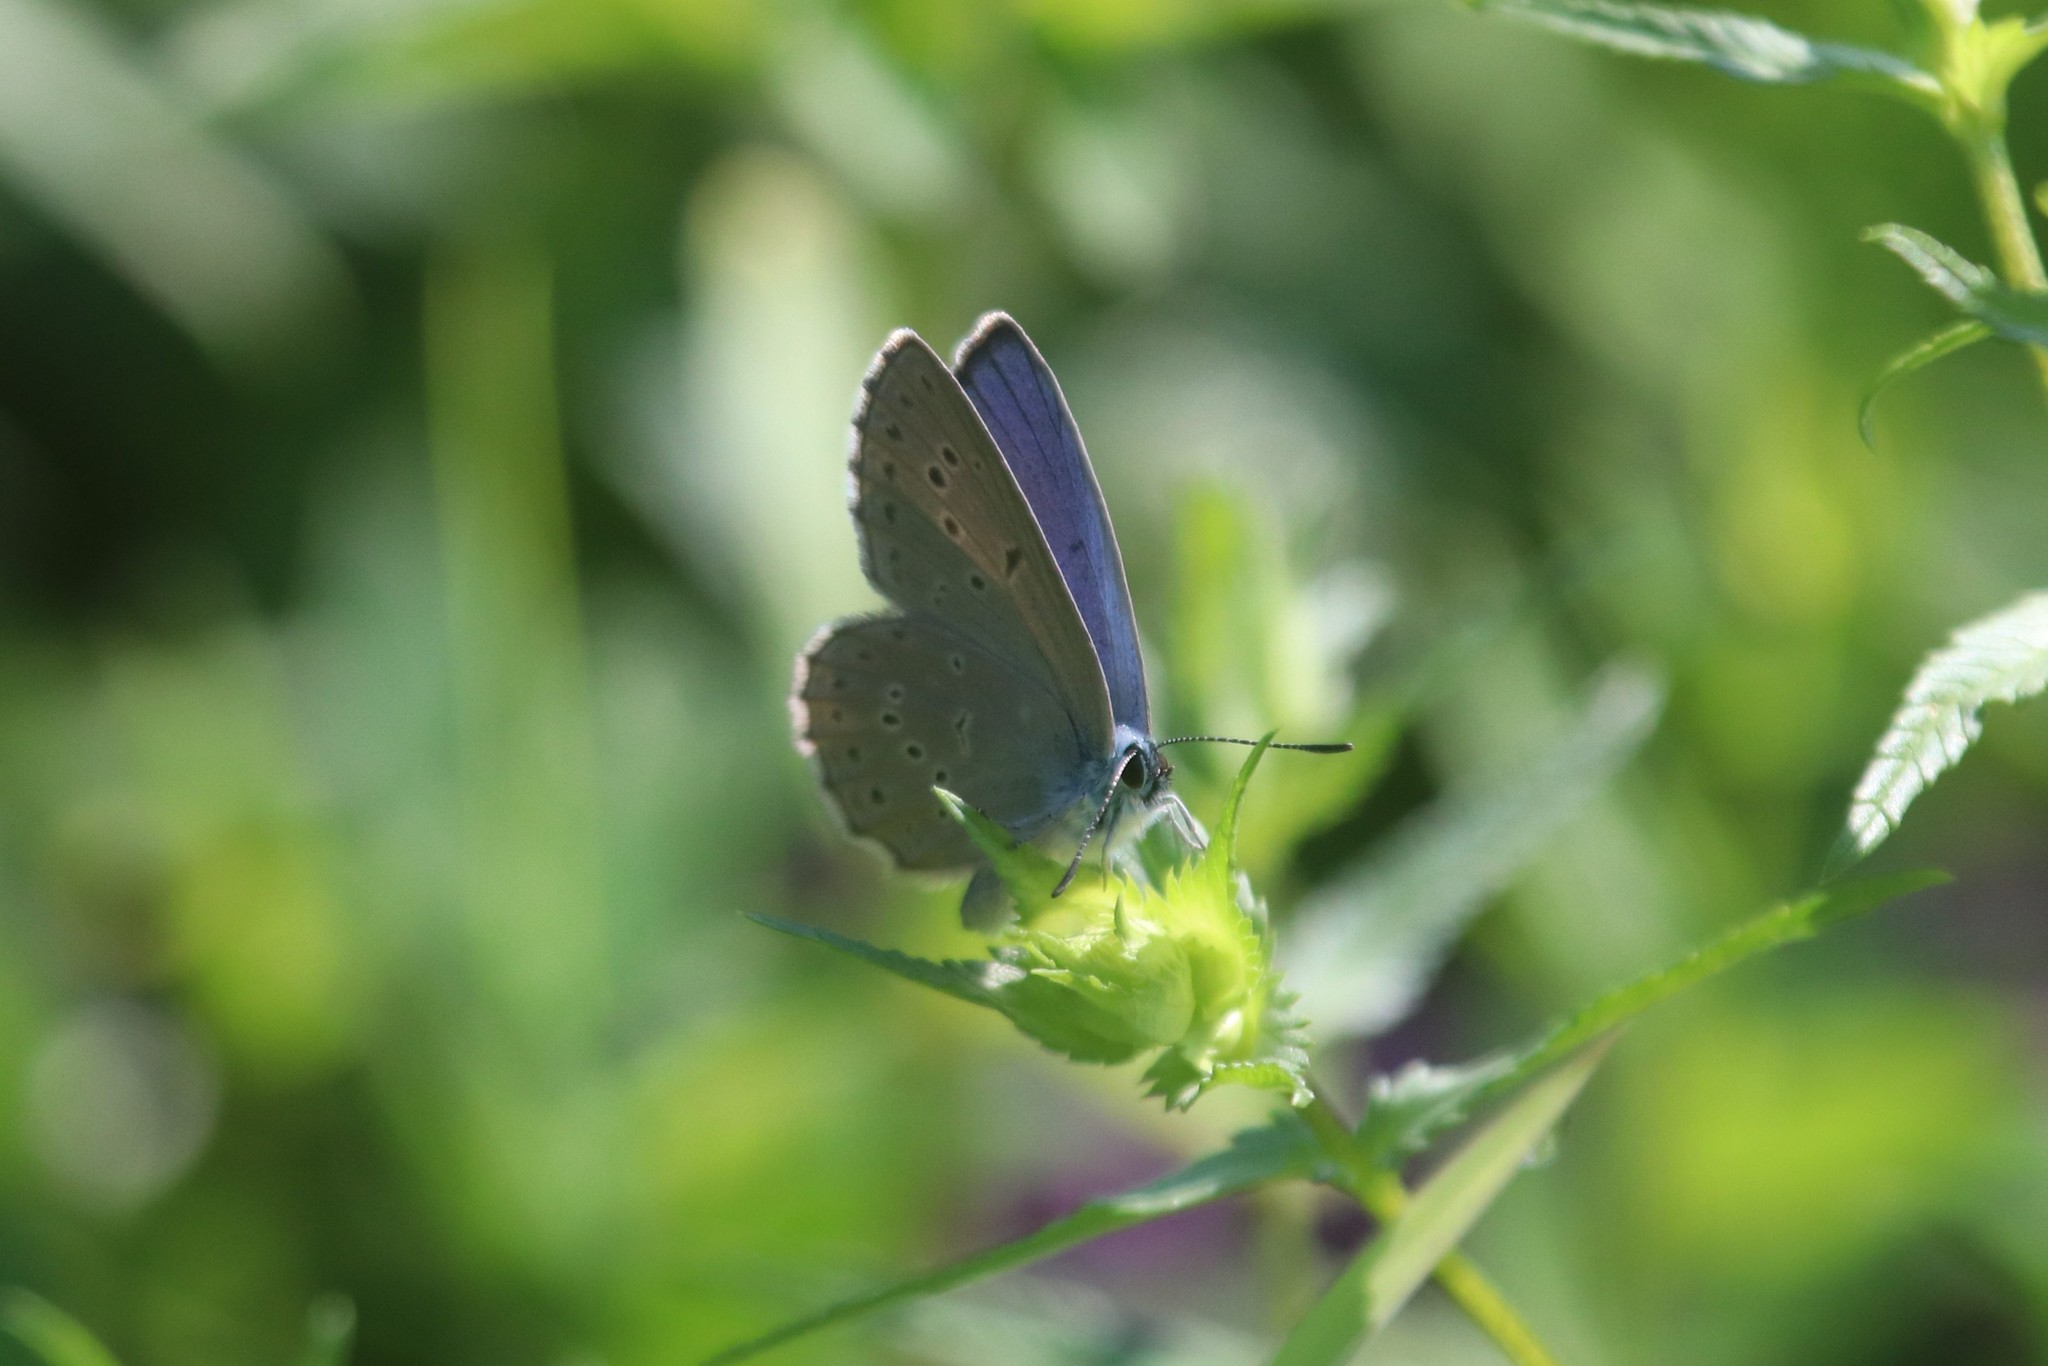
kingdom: Animalia
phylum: Arthropoda
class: Insecta
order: Lepidoptera
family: Lycaenidae
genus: Maculinea
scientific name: Maculinea alcon
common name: Alcon blue
